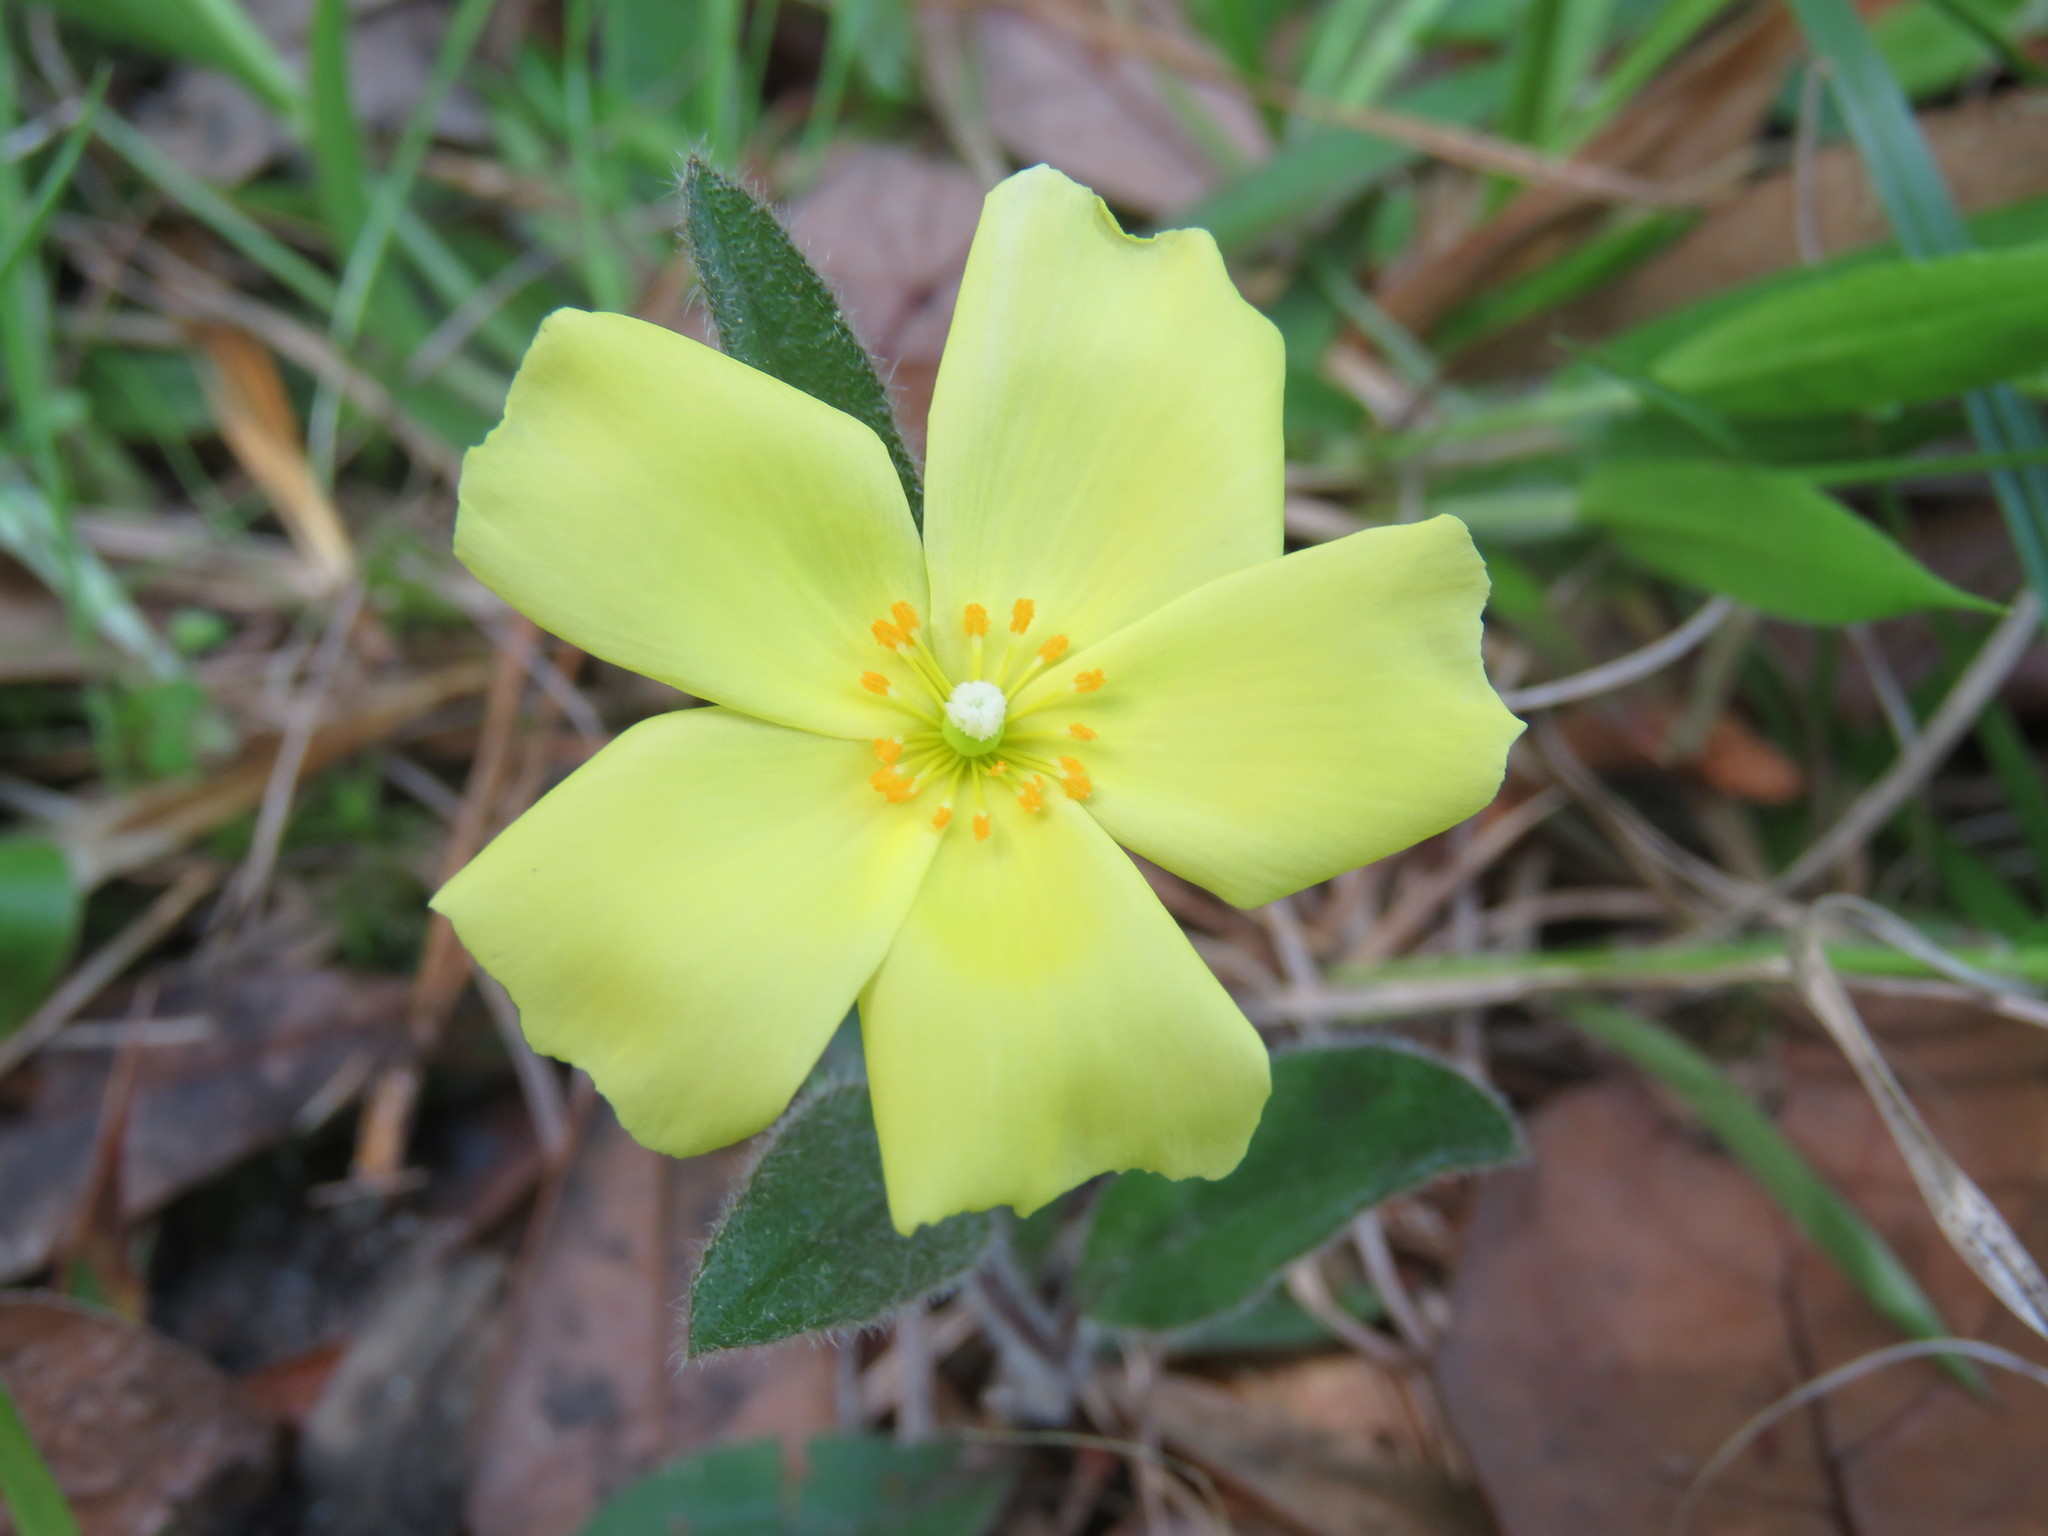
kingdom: Plantae
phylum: Tracheophyta
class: Magnoliopsida
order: Malvales
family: Cistaceae
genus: Crocanthemum
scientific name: Crocanthemum carolinianum
